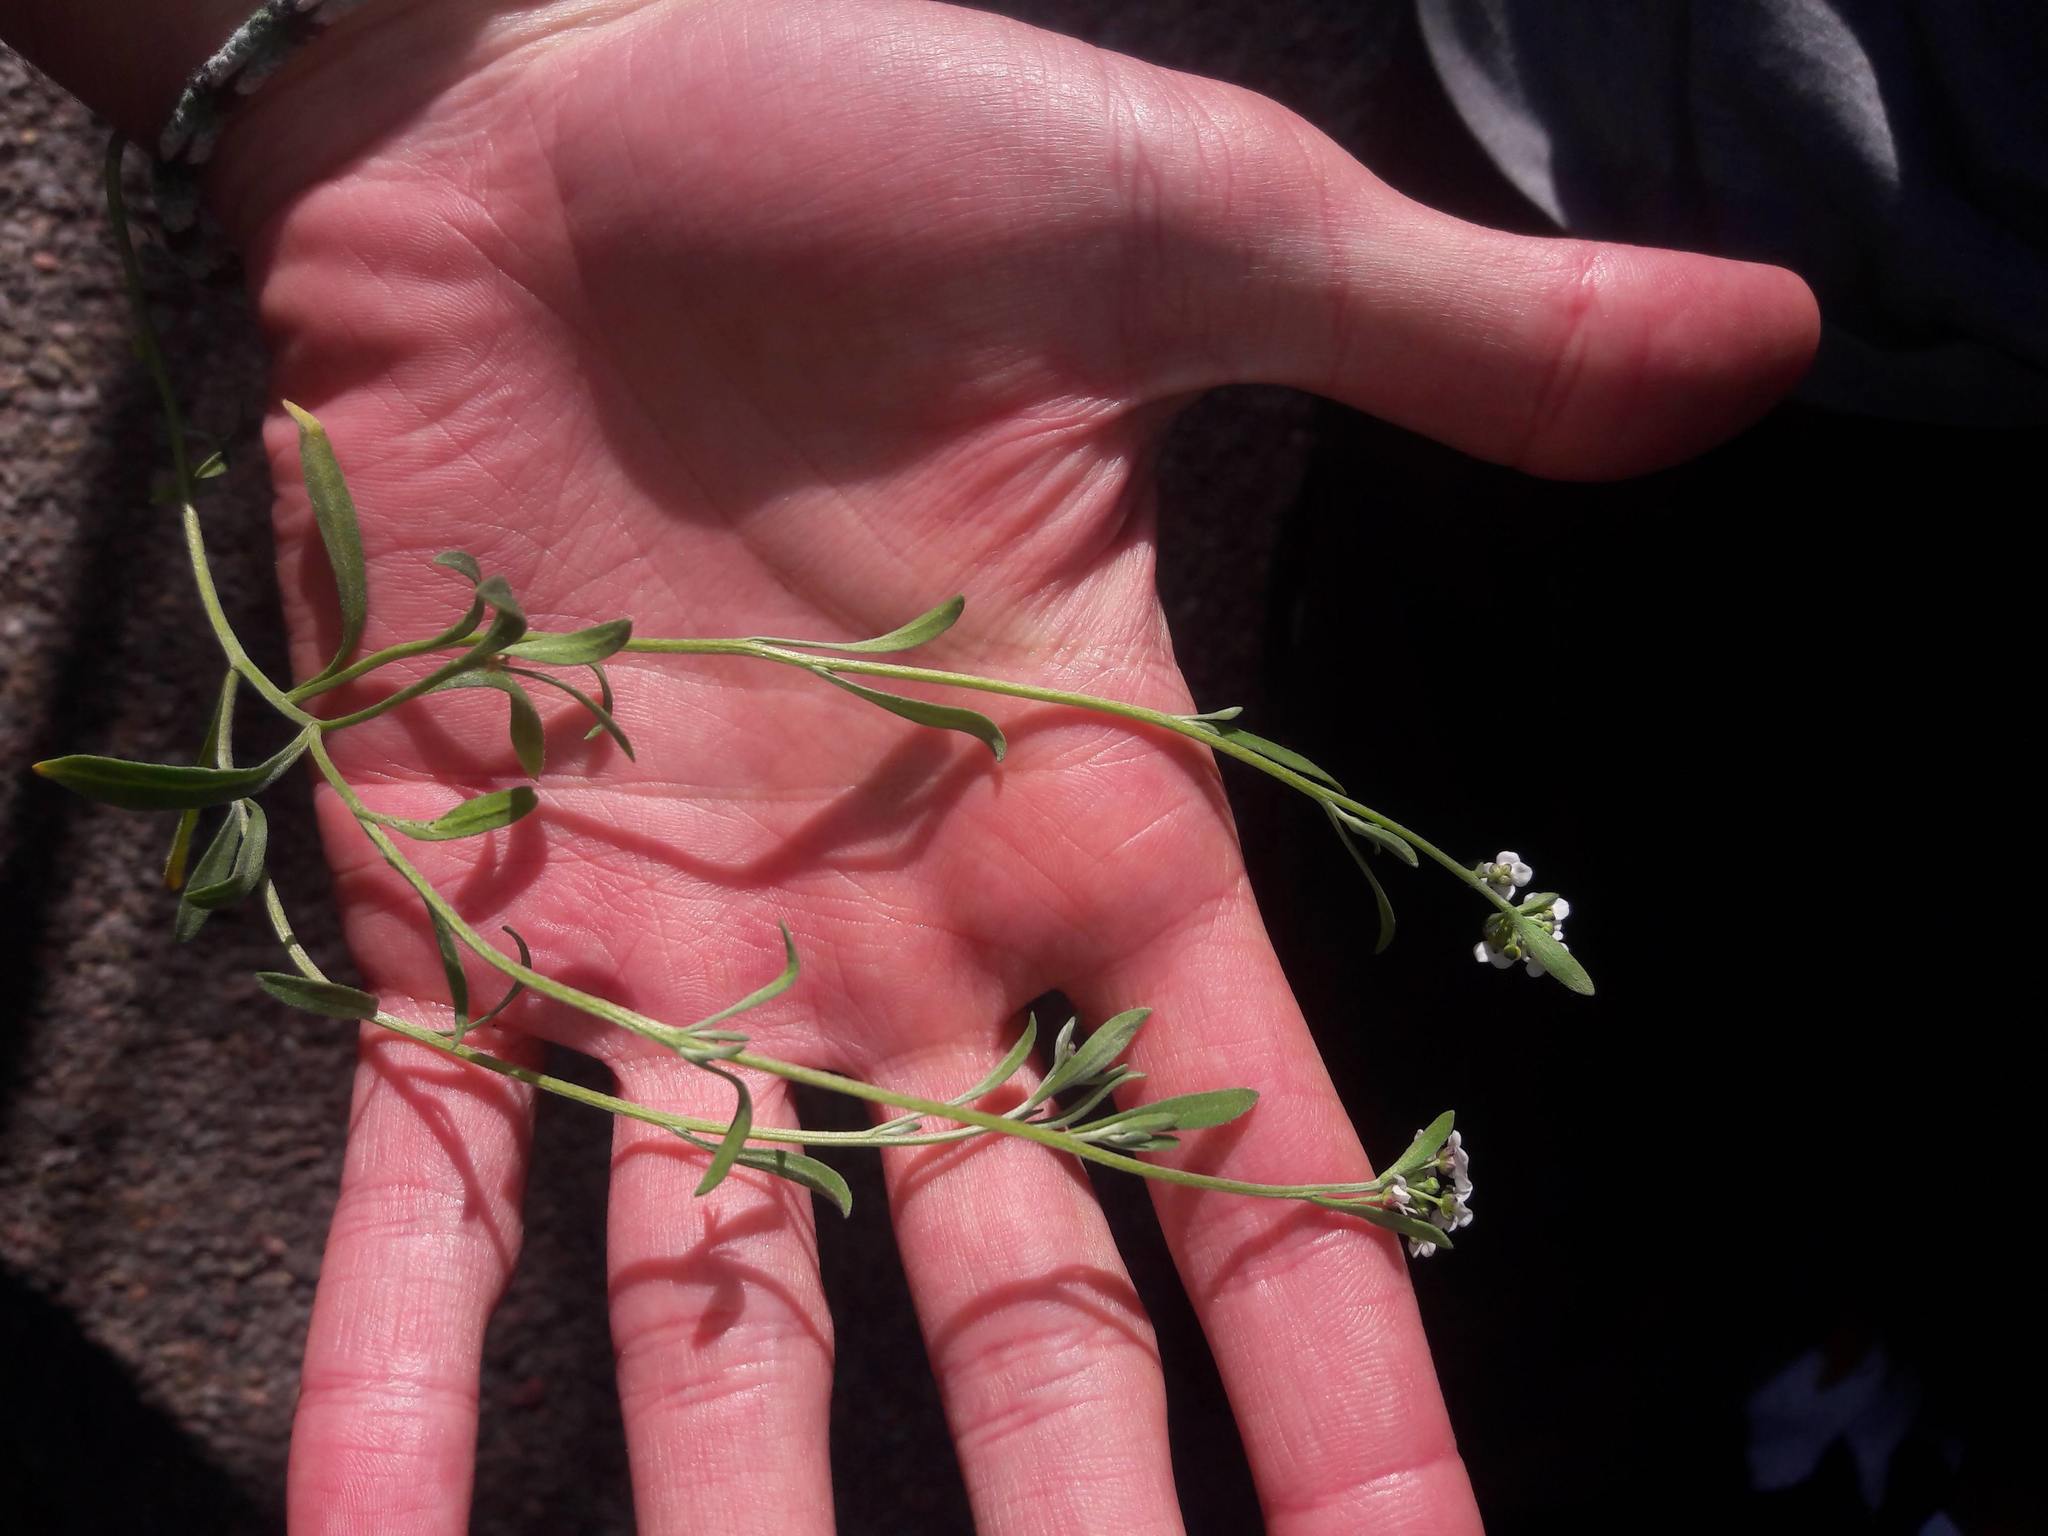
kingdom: Plantae
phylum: Tracheophyta
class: Magnoliopsida
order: Brassicales
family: Brassicaceae
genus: Lobularia
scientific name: Lobularia maritima
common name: Sweet alison
